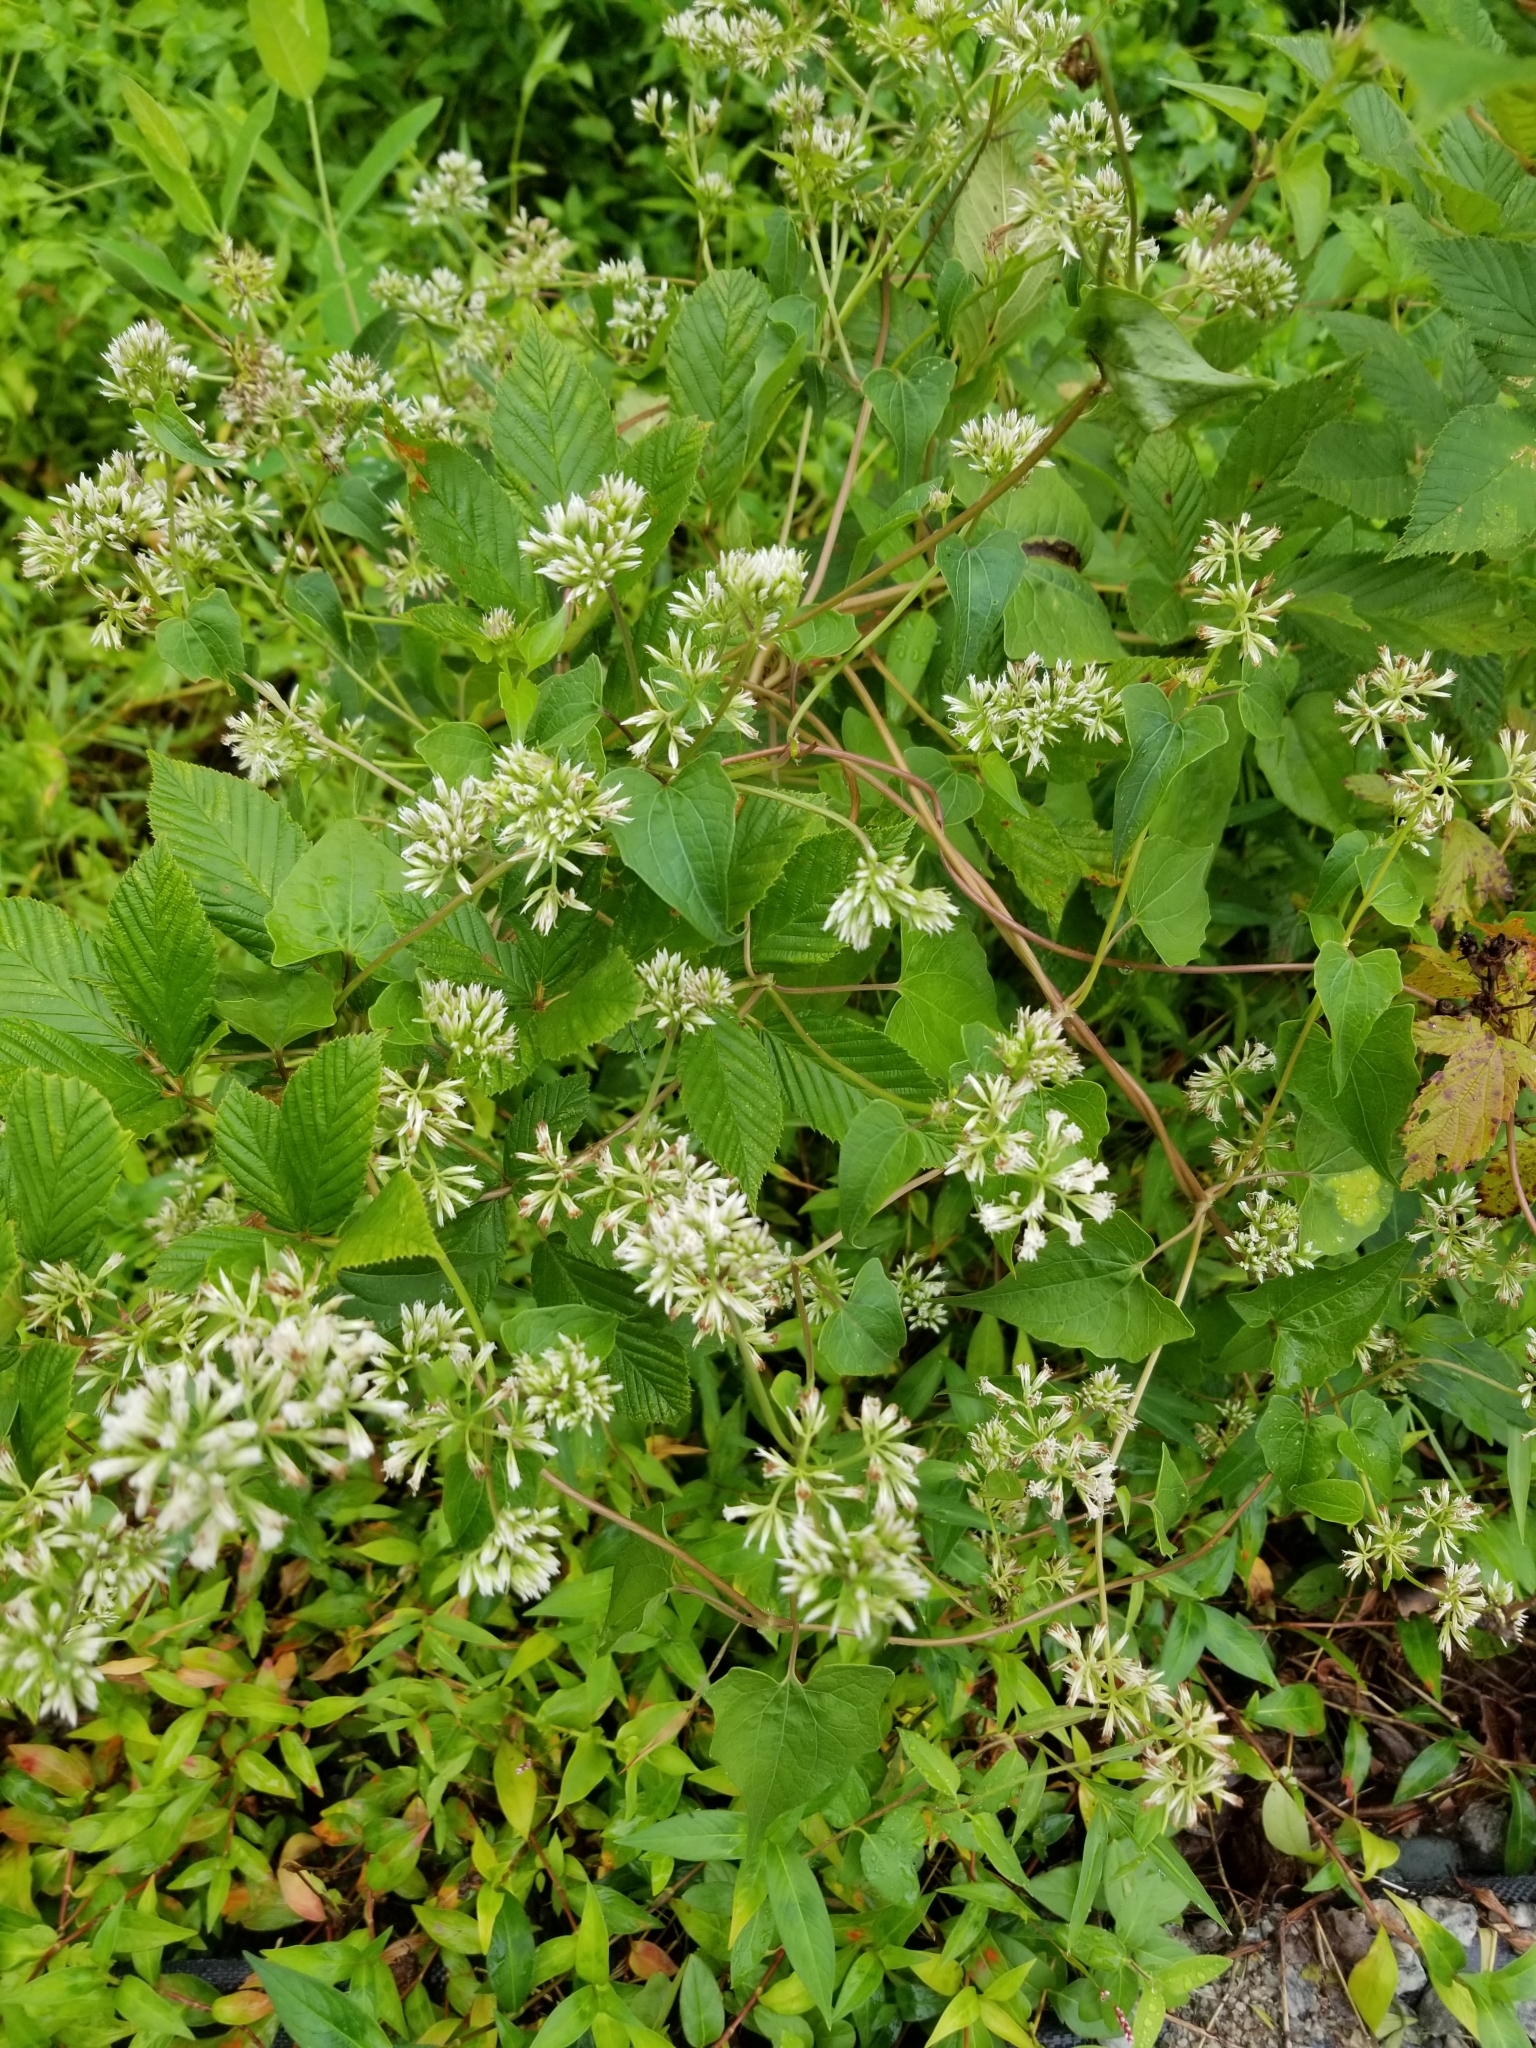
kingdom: Plantae
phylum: Tracheophyta
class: Magnoliopsida
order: Asterales
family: Asteraceae
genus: Mikania
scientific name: Mikania scandens
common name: Climbing hempvine
